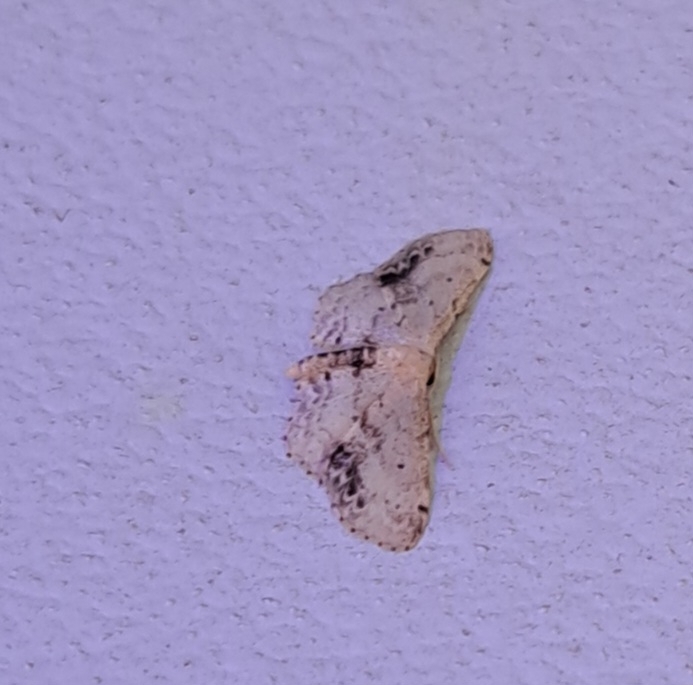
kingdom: Animalia
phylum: Arthropoda
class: Insecta
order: Lepidoptera
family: Geometridae
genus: Idaea
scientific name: Idaea dimidiata
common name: Single-dotted wave
